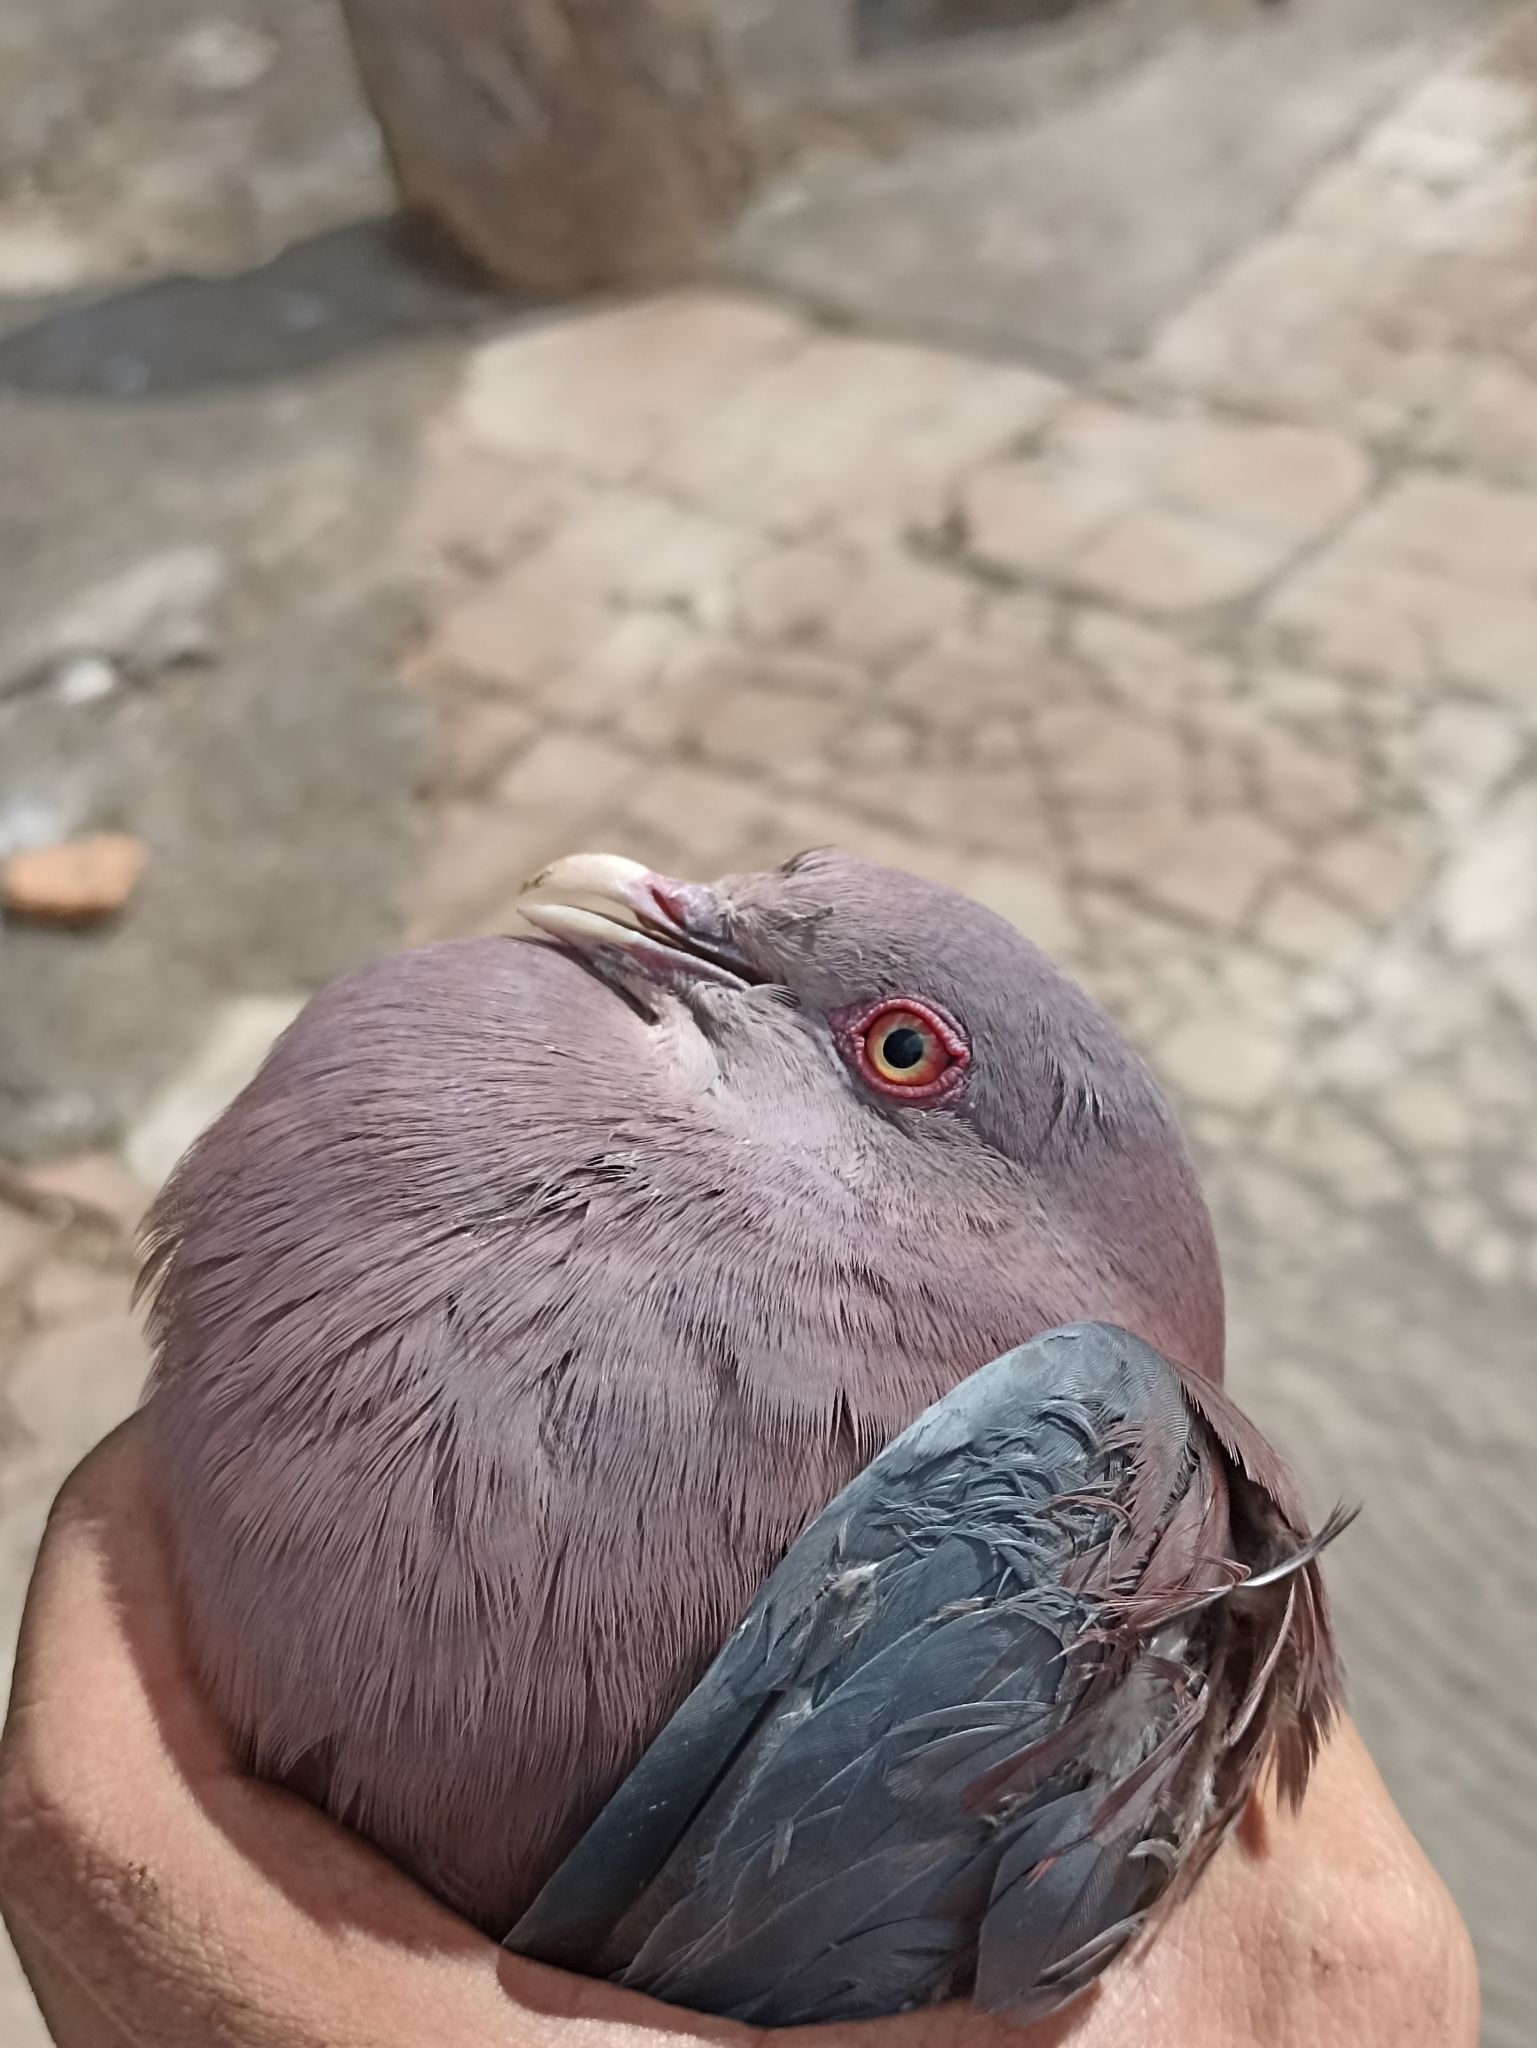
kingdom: Animalia
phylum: Chordata
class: Aves
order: Columbiformes
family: Columbidae
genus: Patagioenas
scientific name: Patagioenas flavirostris
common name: Red-billed pigeon
